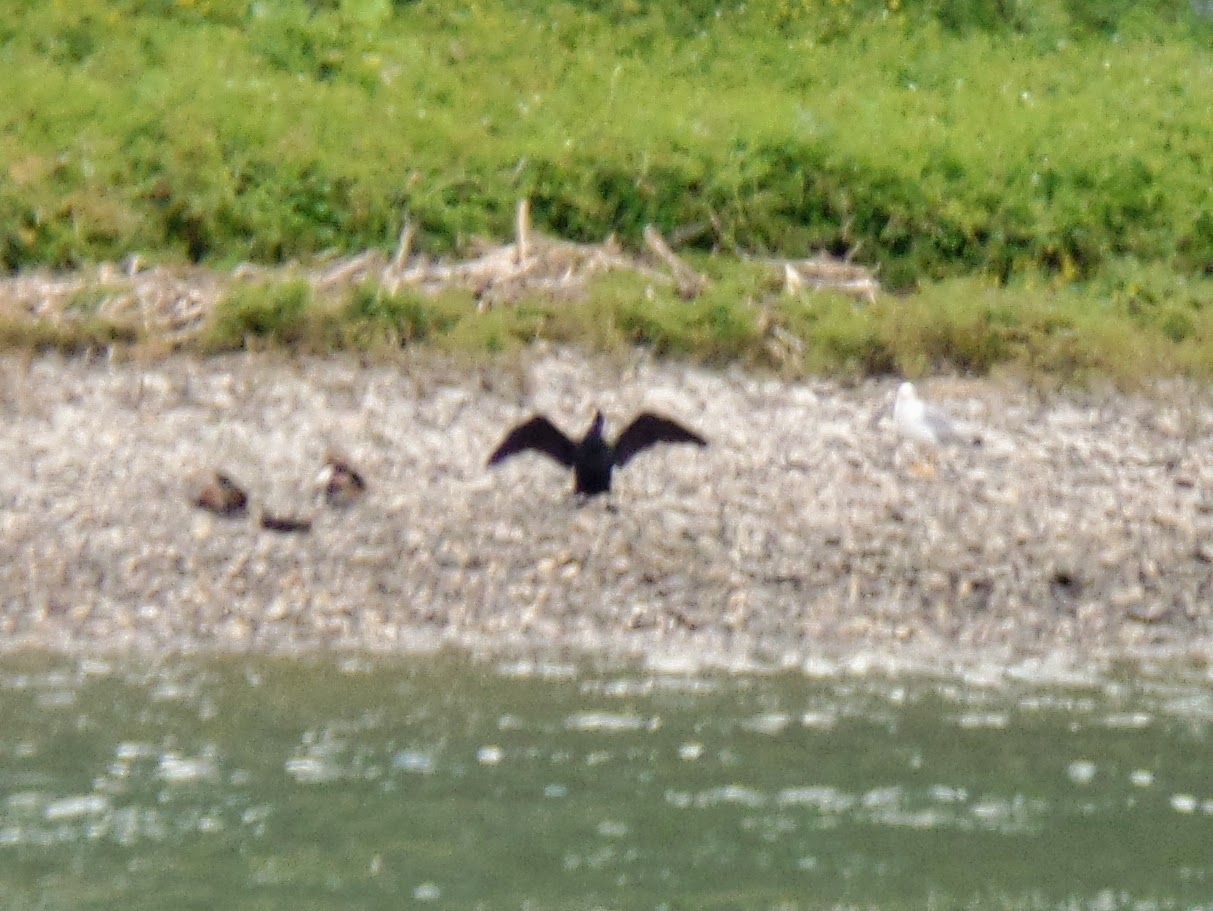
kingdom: Animalia
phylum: Chordata
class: Aves
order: Suliformes
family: Phalacrocoracidae
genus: Phalacrocorax
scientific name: Phalacrocorax carbo
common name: Great cormorant
